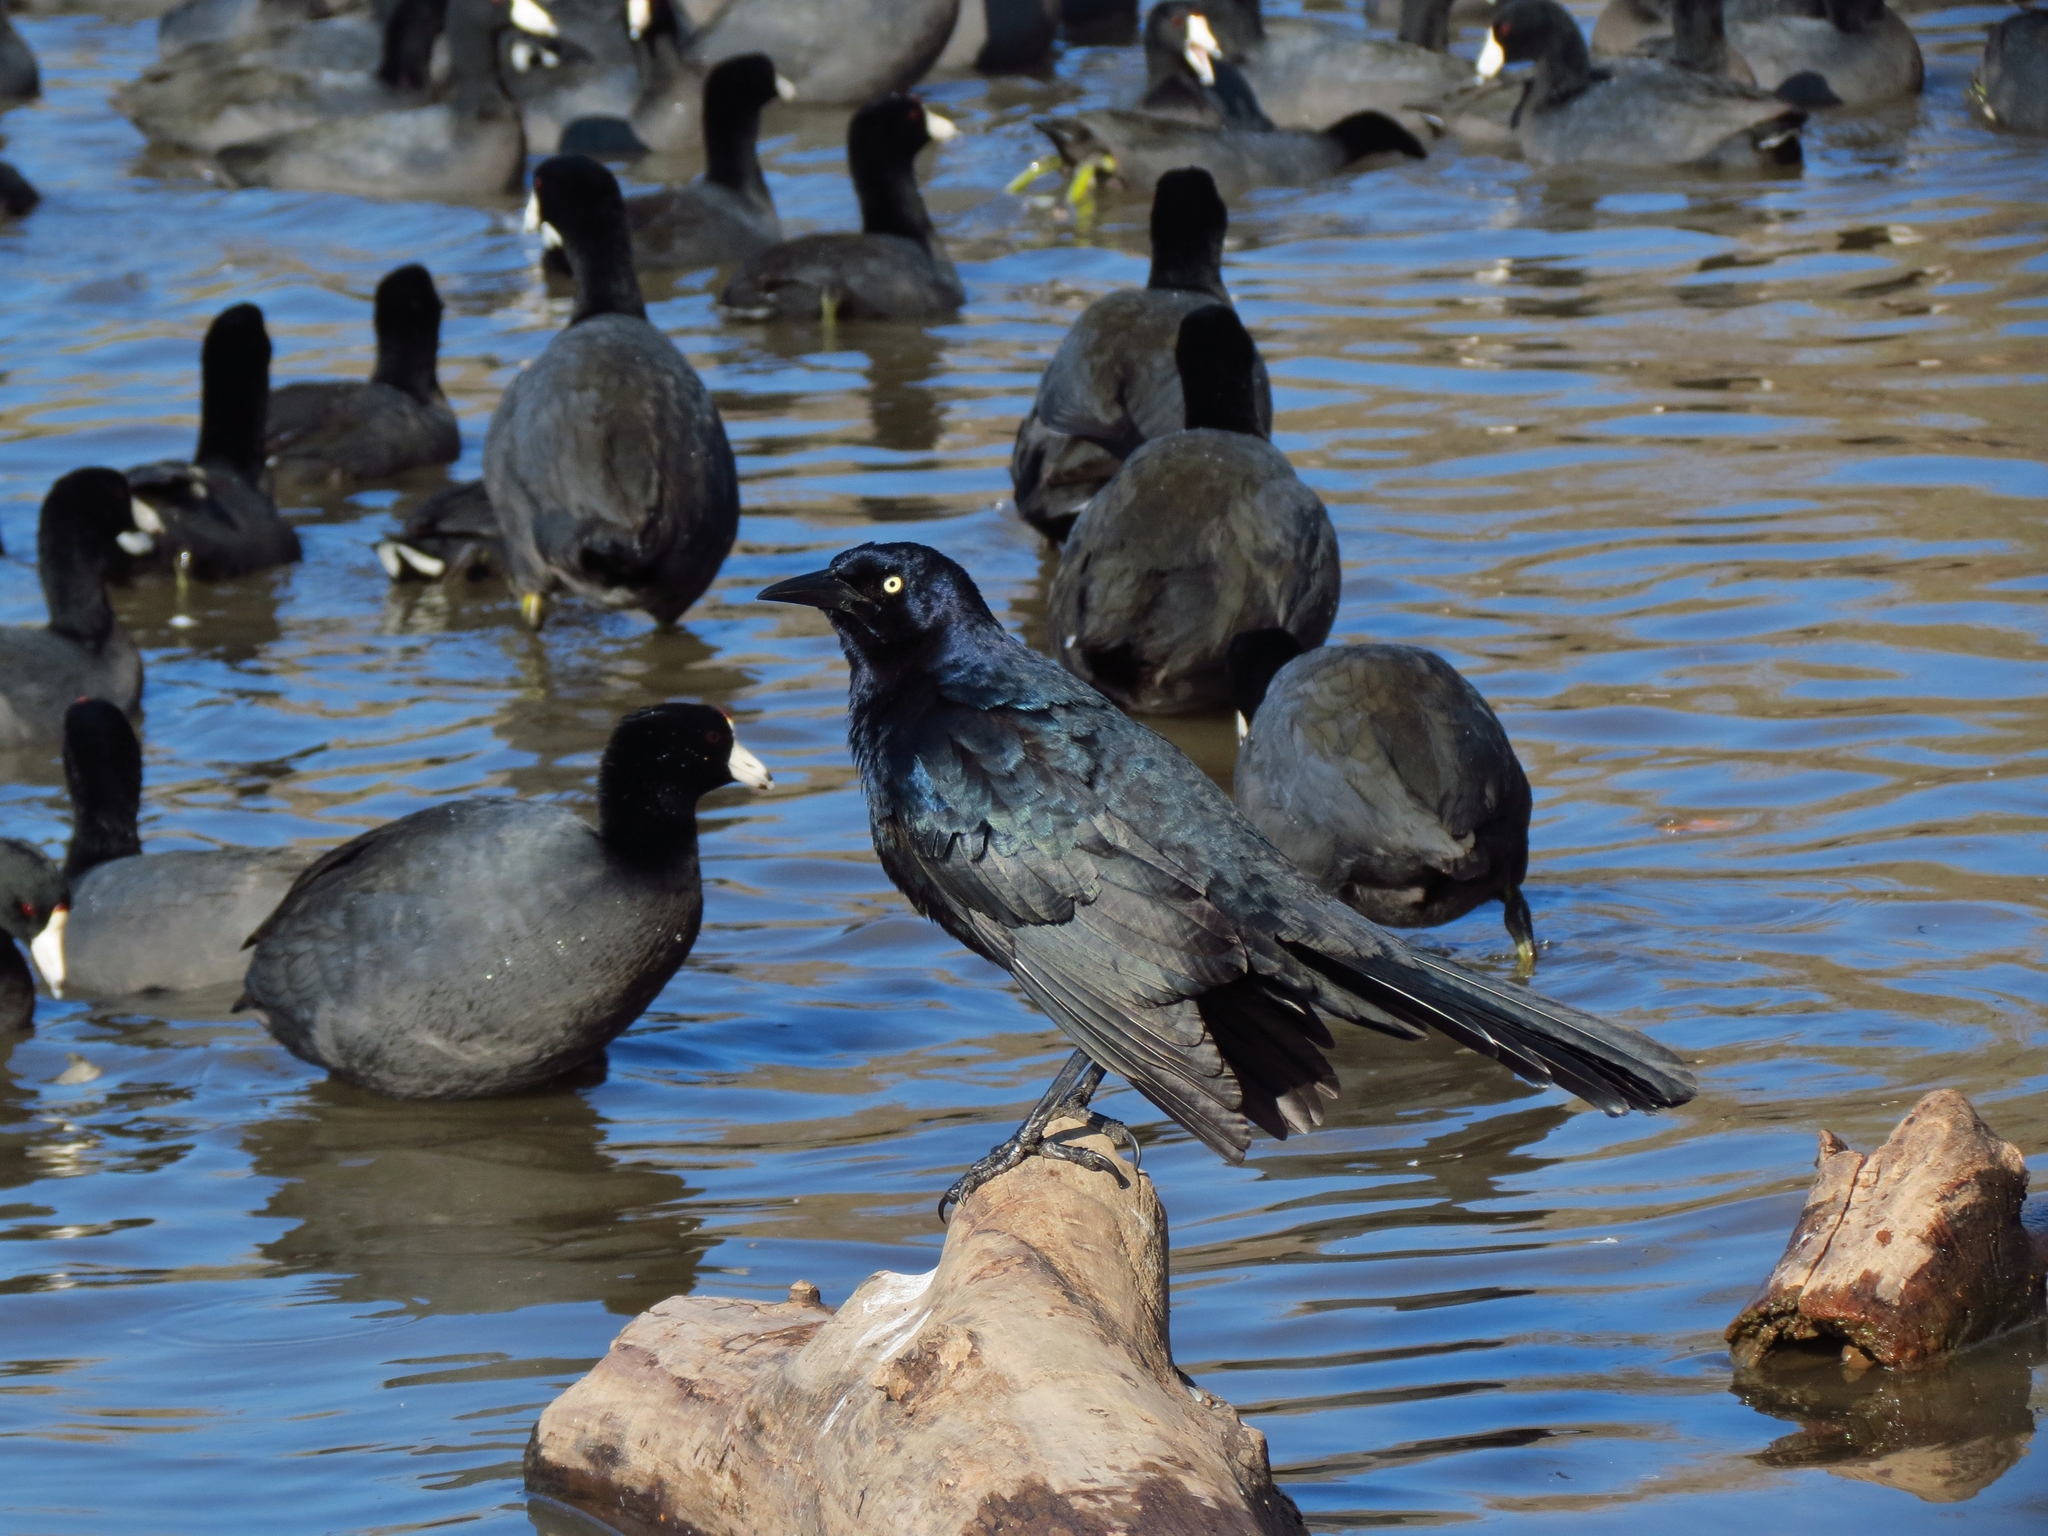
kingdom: Animalia
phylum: Chordata
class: Aves
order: Passeriformes
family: Icteridae
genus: Quiscalus
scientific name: Quiscalus mexicanus
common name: Great-tailed grackle
